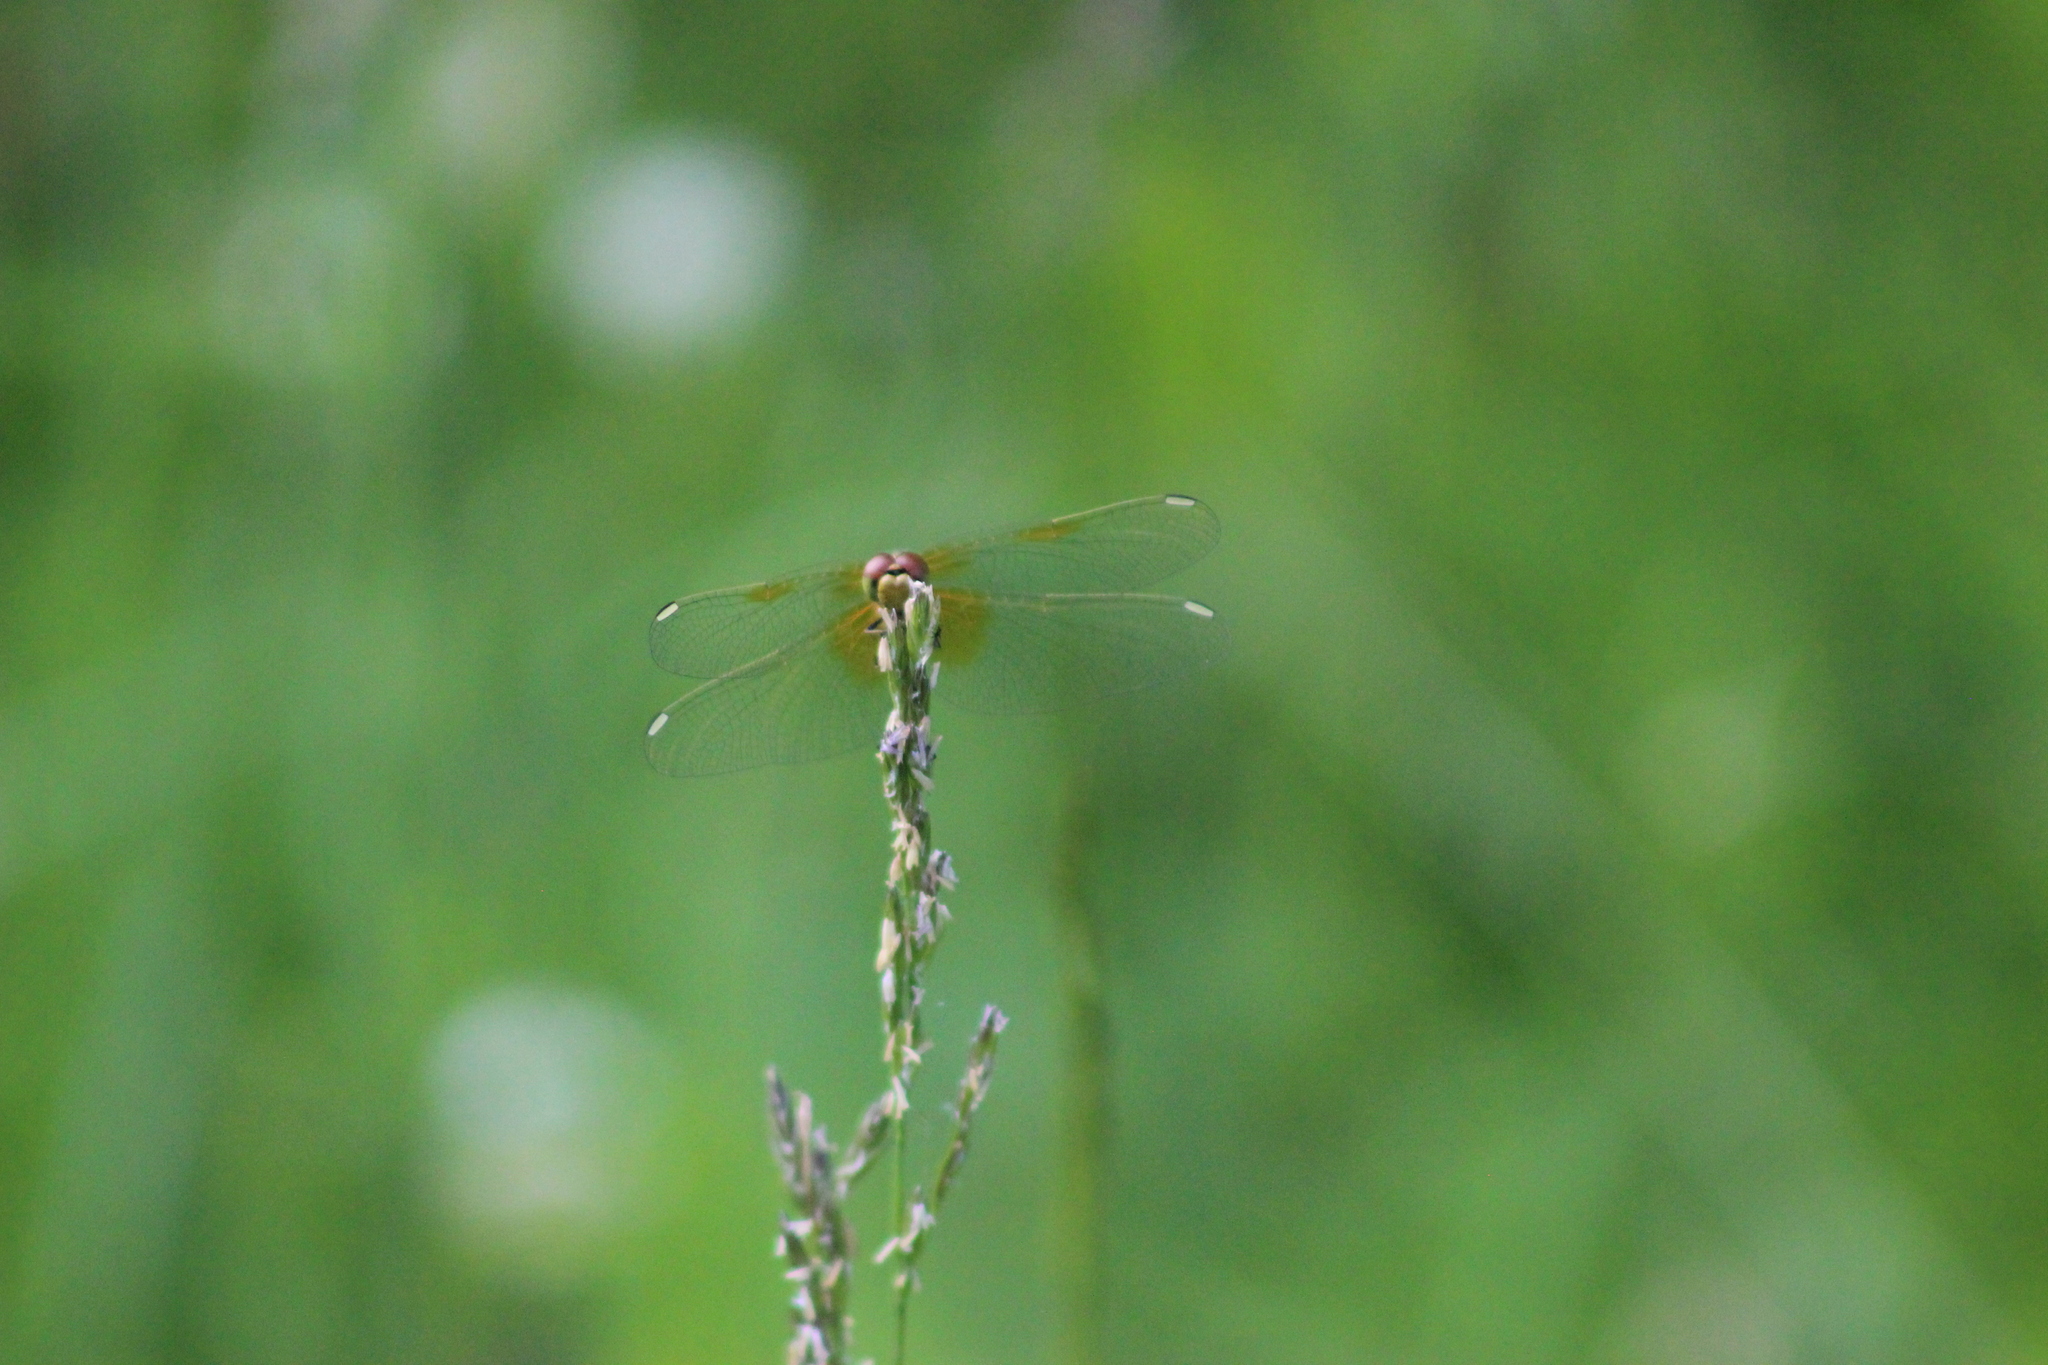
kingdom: Animalia
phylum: Arthropoda
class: Insecta
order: Odonata
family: Libellulidae
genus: Sympetrum
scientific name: Sympetrum flaveolum
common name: Yellow-winged darter
